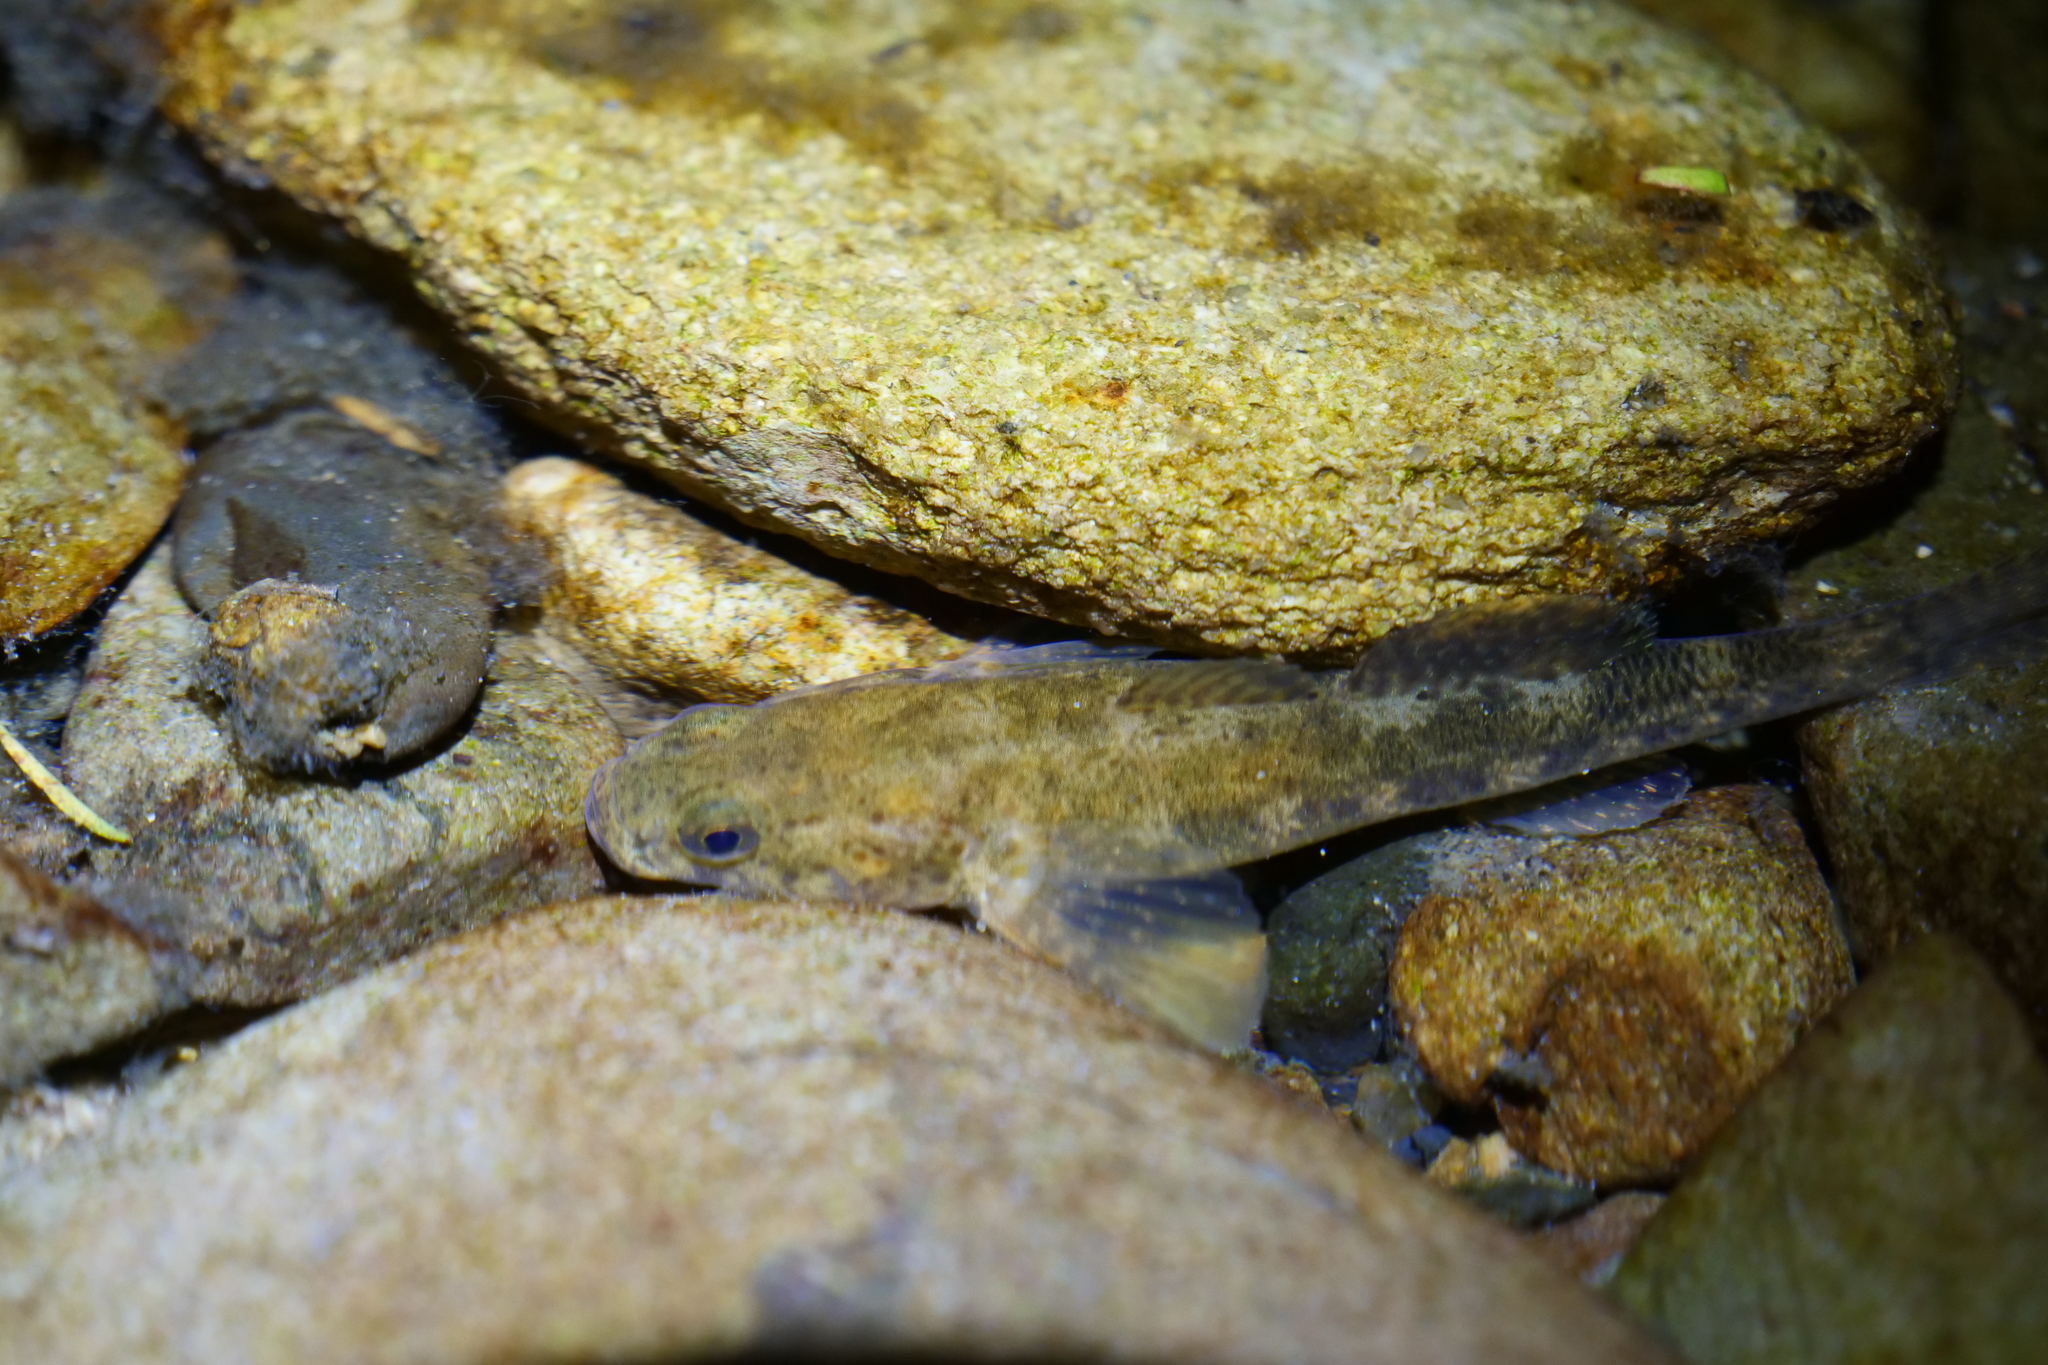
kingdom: Animalia
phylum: Chordata
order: Perciformes
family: Eleotridae
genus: Gobiomorphus
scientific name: Gobiomorphus breviceps
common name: Upland bully
